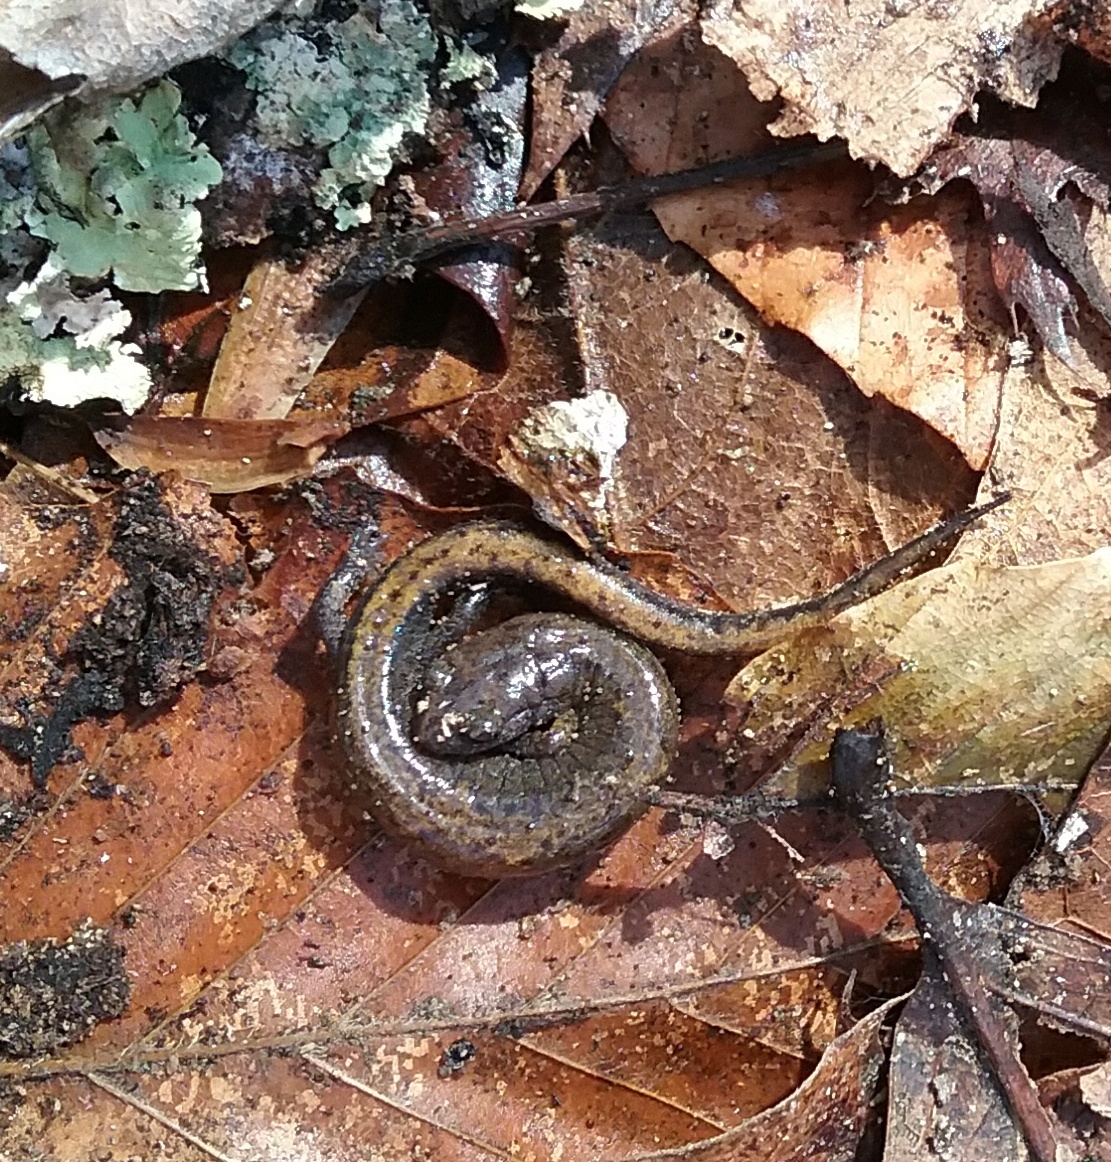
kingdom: Animalia
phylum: Chordata
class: Amphibia
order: Caudata
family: Plethodontidae
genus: Plethodon
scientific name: Plethodon cinereus
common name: Redback salamander
